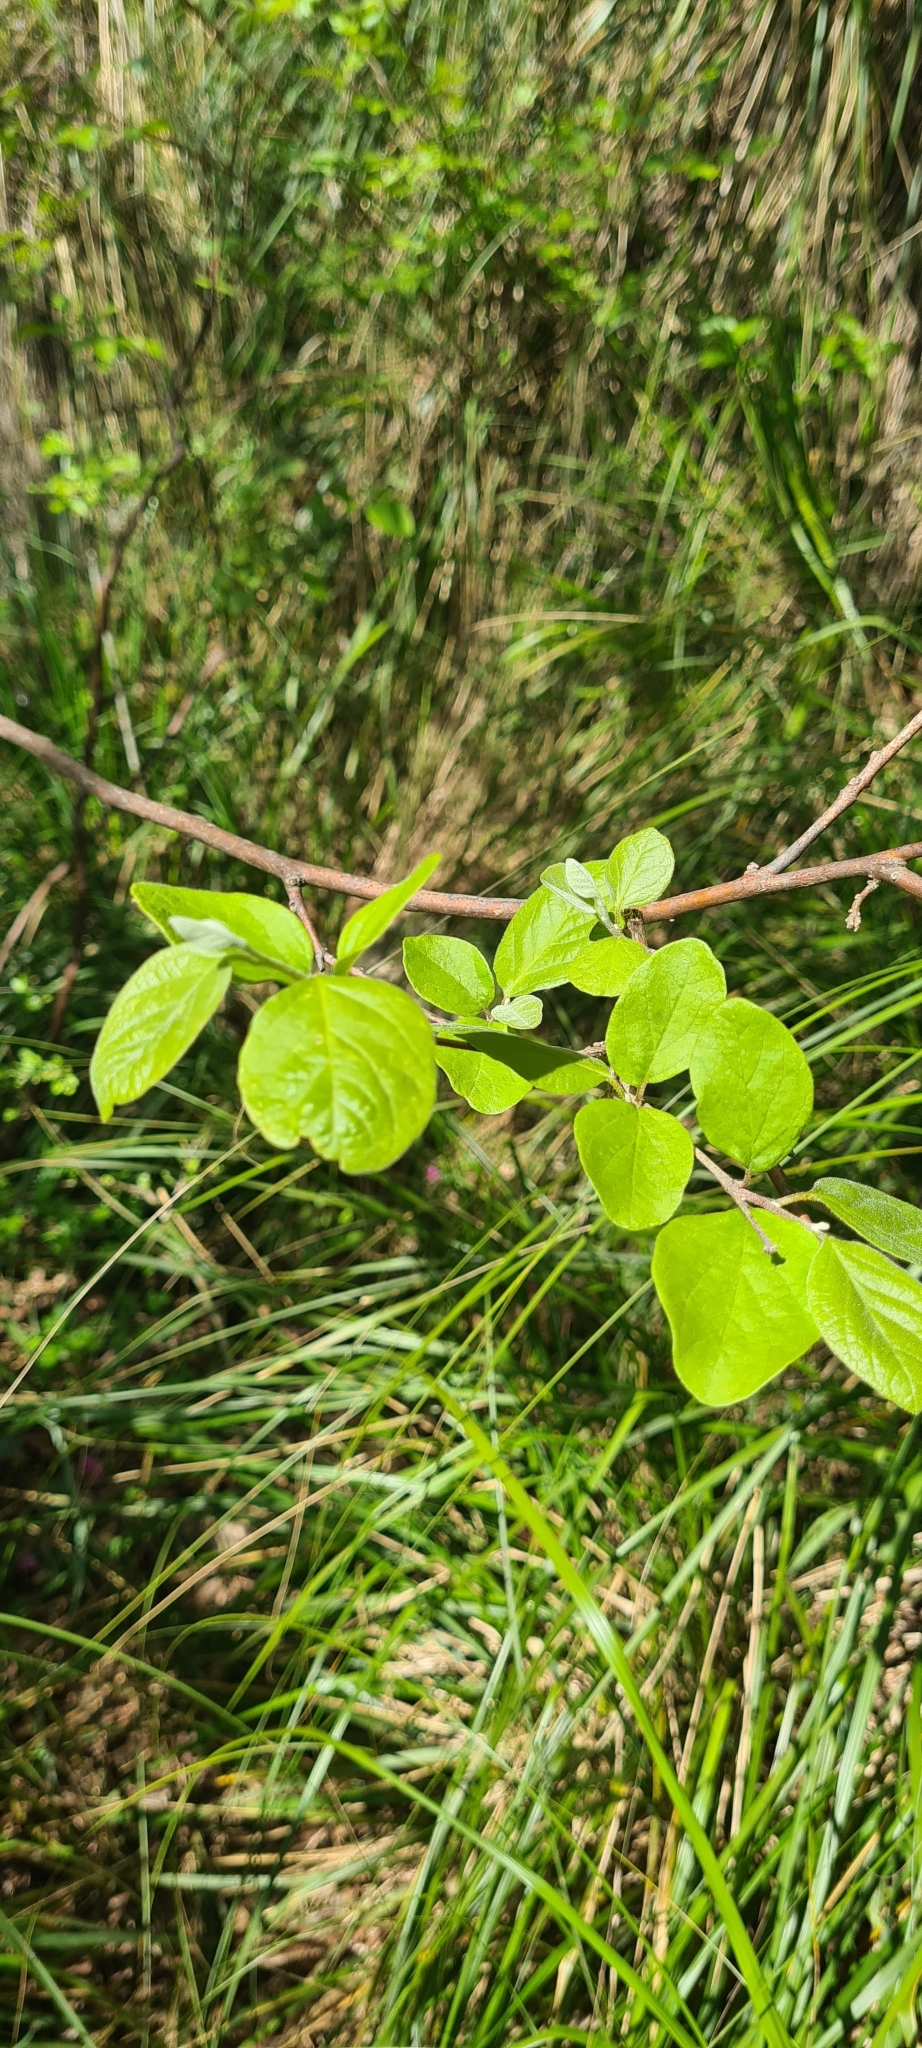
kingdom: Plantae
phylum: Tracheophyta
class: Magnoliopsida
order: Ericales
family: Styracaceae
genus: Styrax
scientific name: Styrax officinalis
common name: Storax
